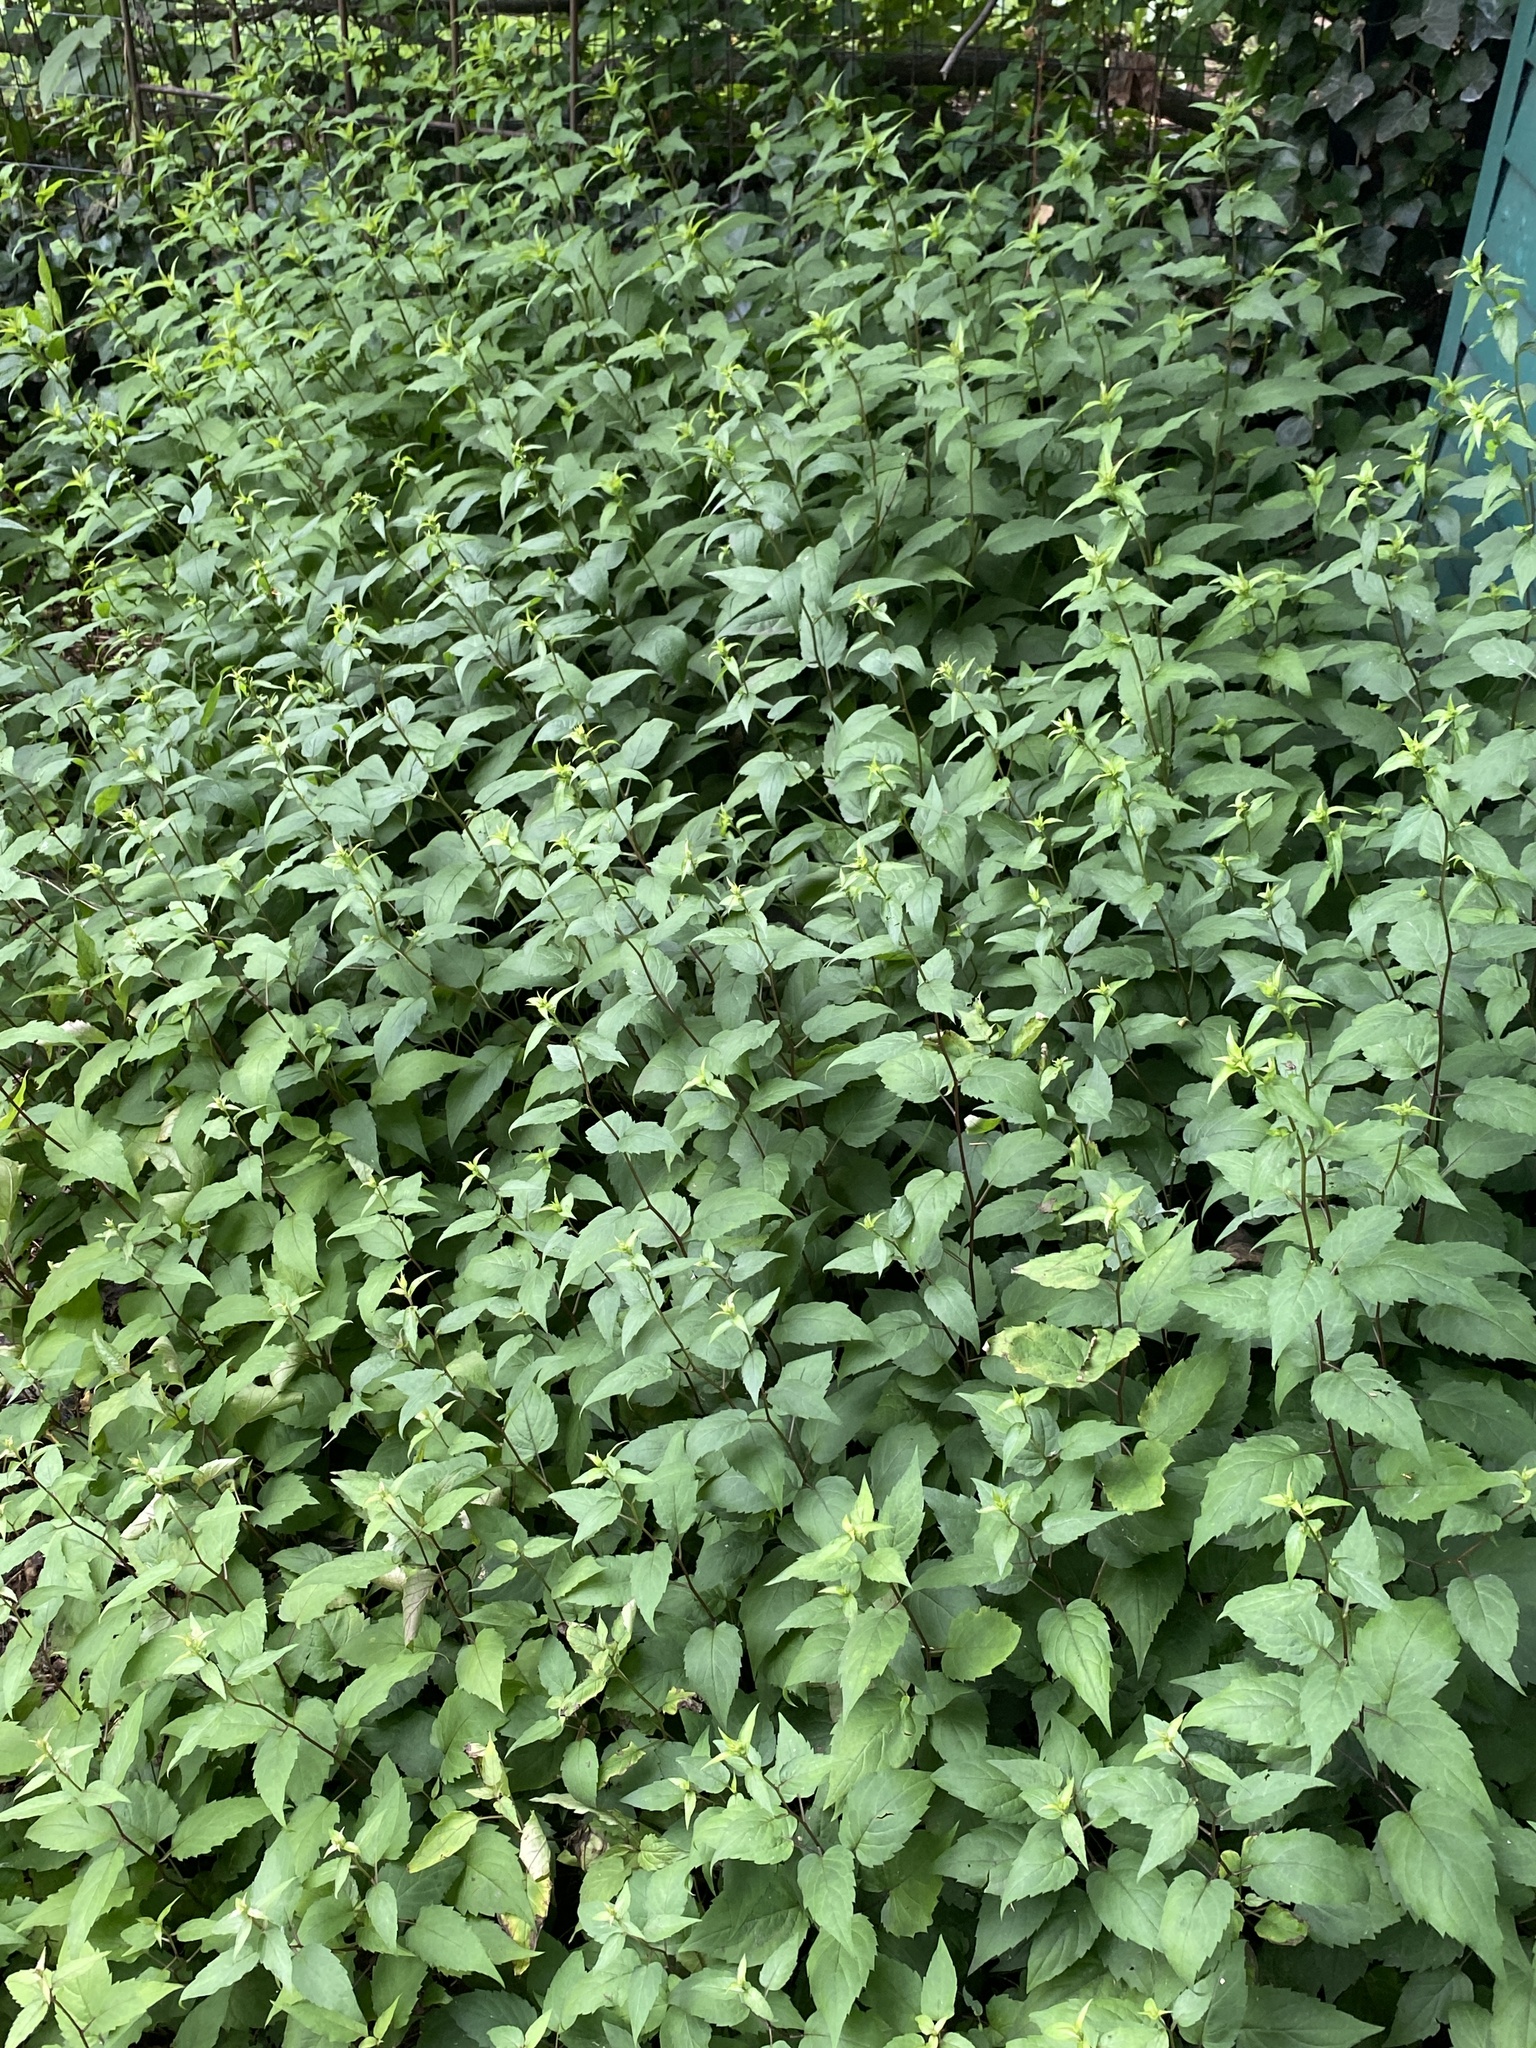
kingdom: Plantae
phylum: Tracheophyta
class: Magnoliopsida
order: Asterales
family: Asteraceae
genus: Eurybia
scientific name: Eurybia divaricata
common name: White wood aster
